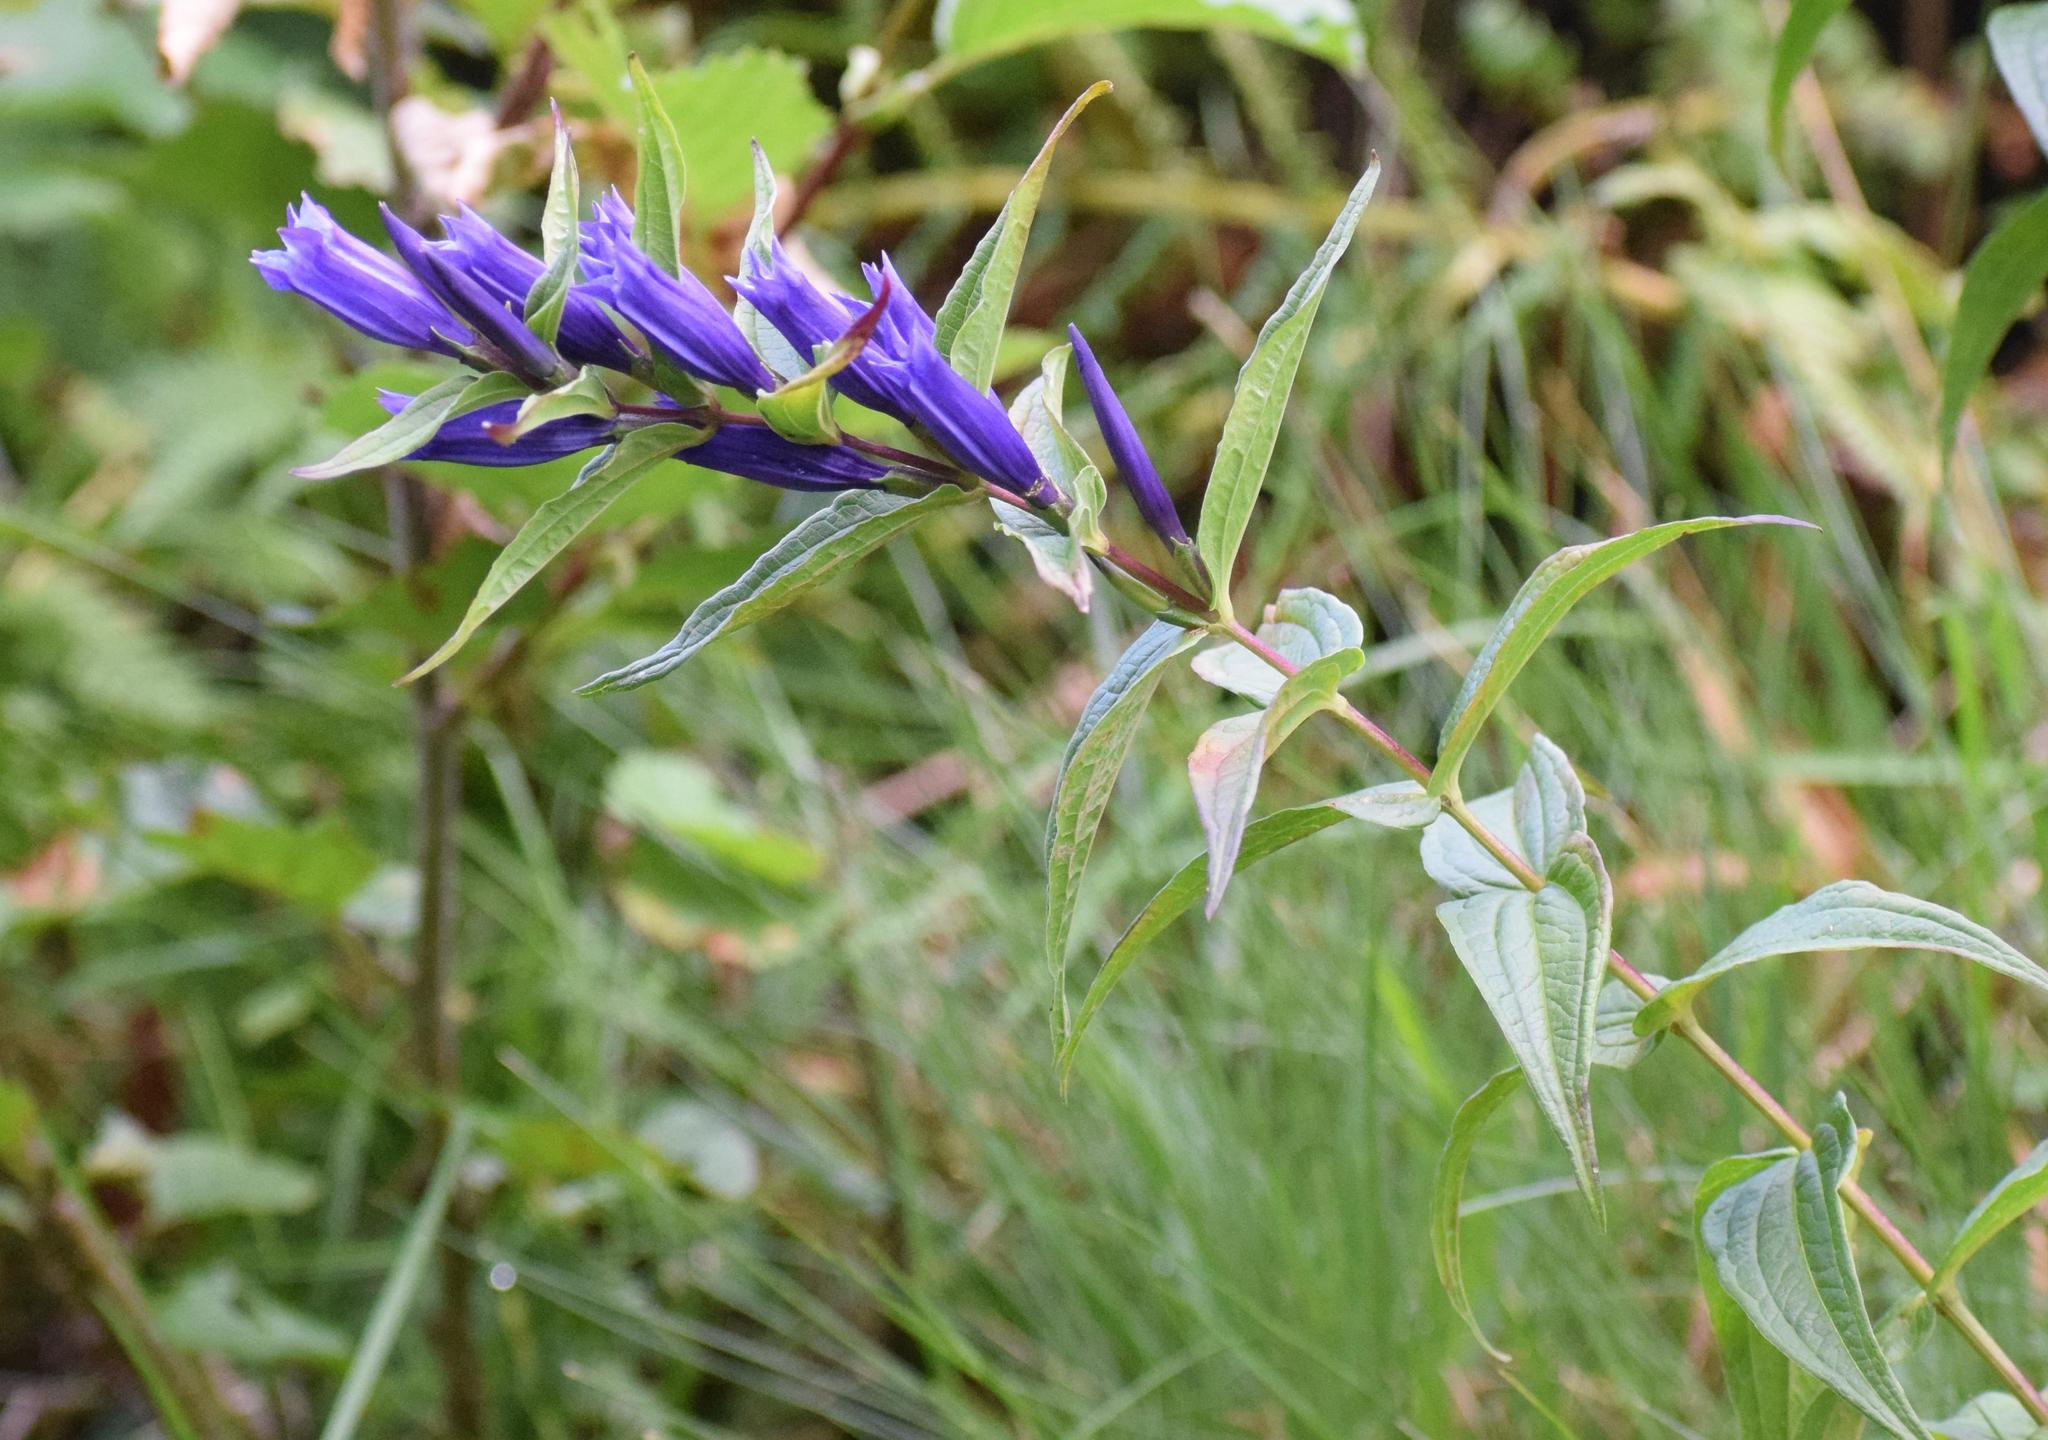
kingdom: Plantae
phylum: Tracheophyta
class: Magnoliopsida
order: Gentianales
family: Gentianaceae
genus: Gentiana
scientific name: Gentiana asclepiadea
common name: Willow gentian
